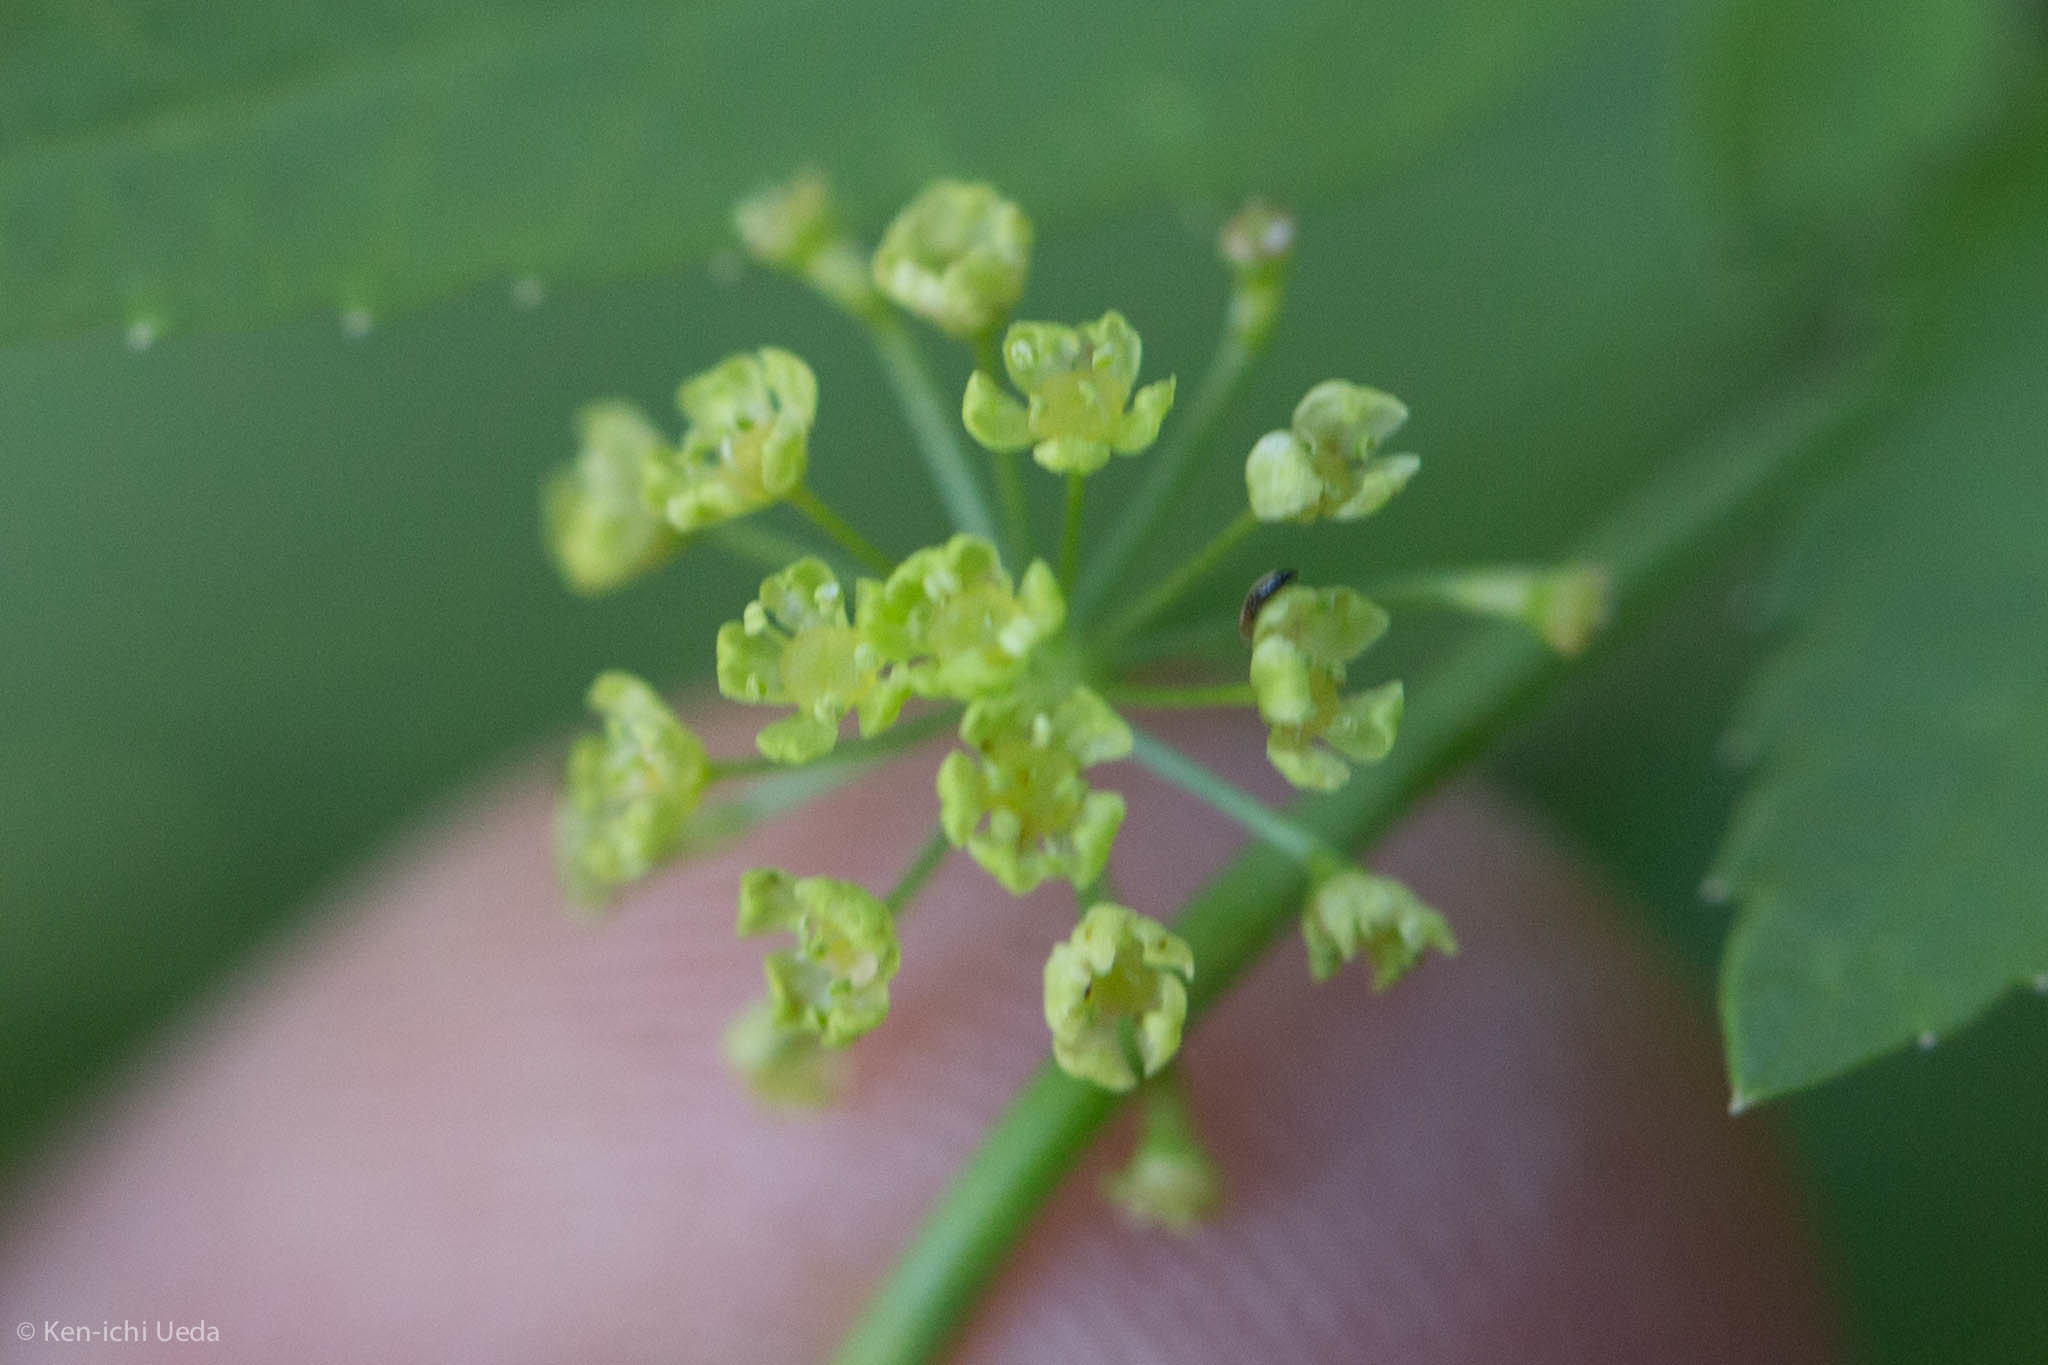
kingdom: Plantae
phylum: Tracheophyta
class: Magnoliopsida
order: Apiales
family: Apiaceae
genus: Osmorhiza
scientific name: Osmorhiza occidentalis
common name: Western sweet cicely
